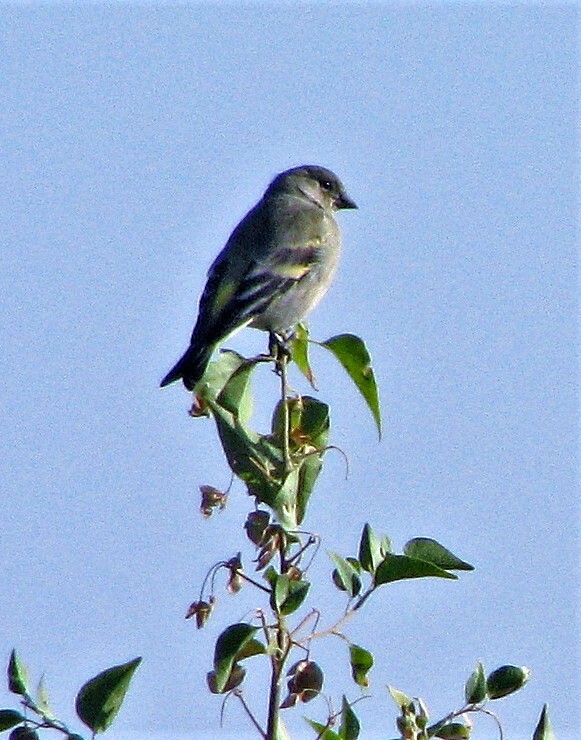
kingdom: Animalia
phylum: Chordata
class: Aves
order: Passeriformes
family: Fringillidae
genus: Spinus
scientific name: Spinus magellanicus
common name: Hooded siskin
